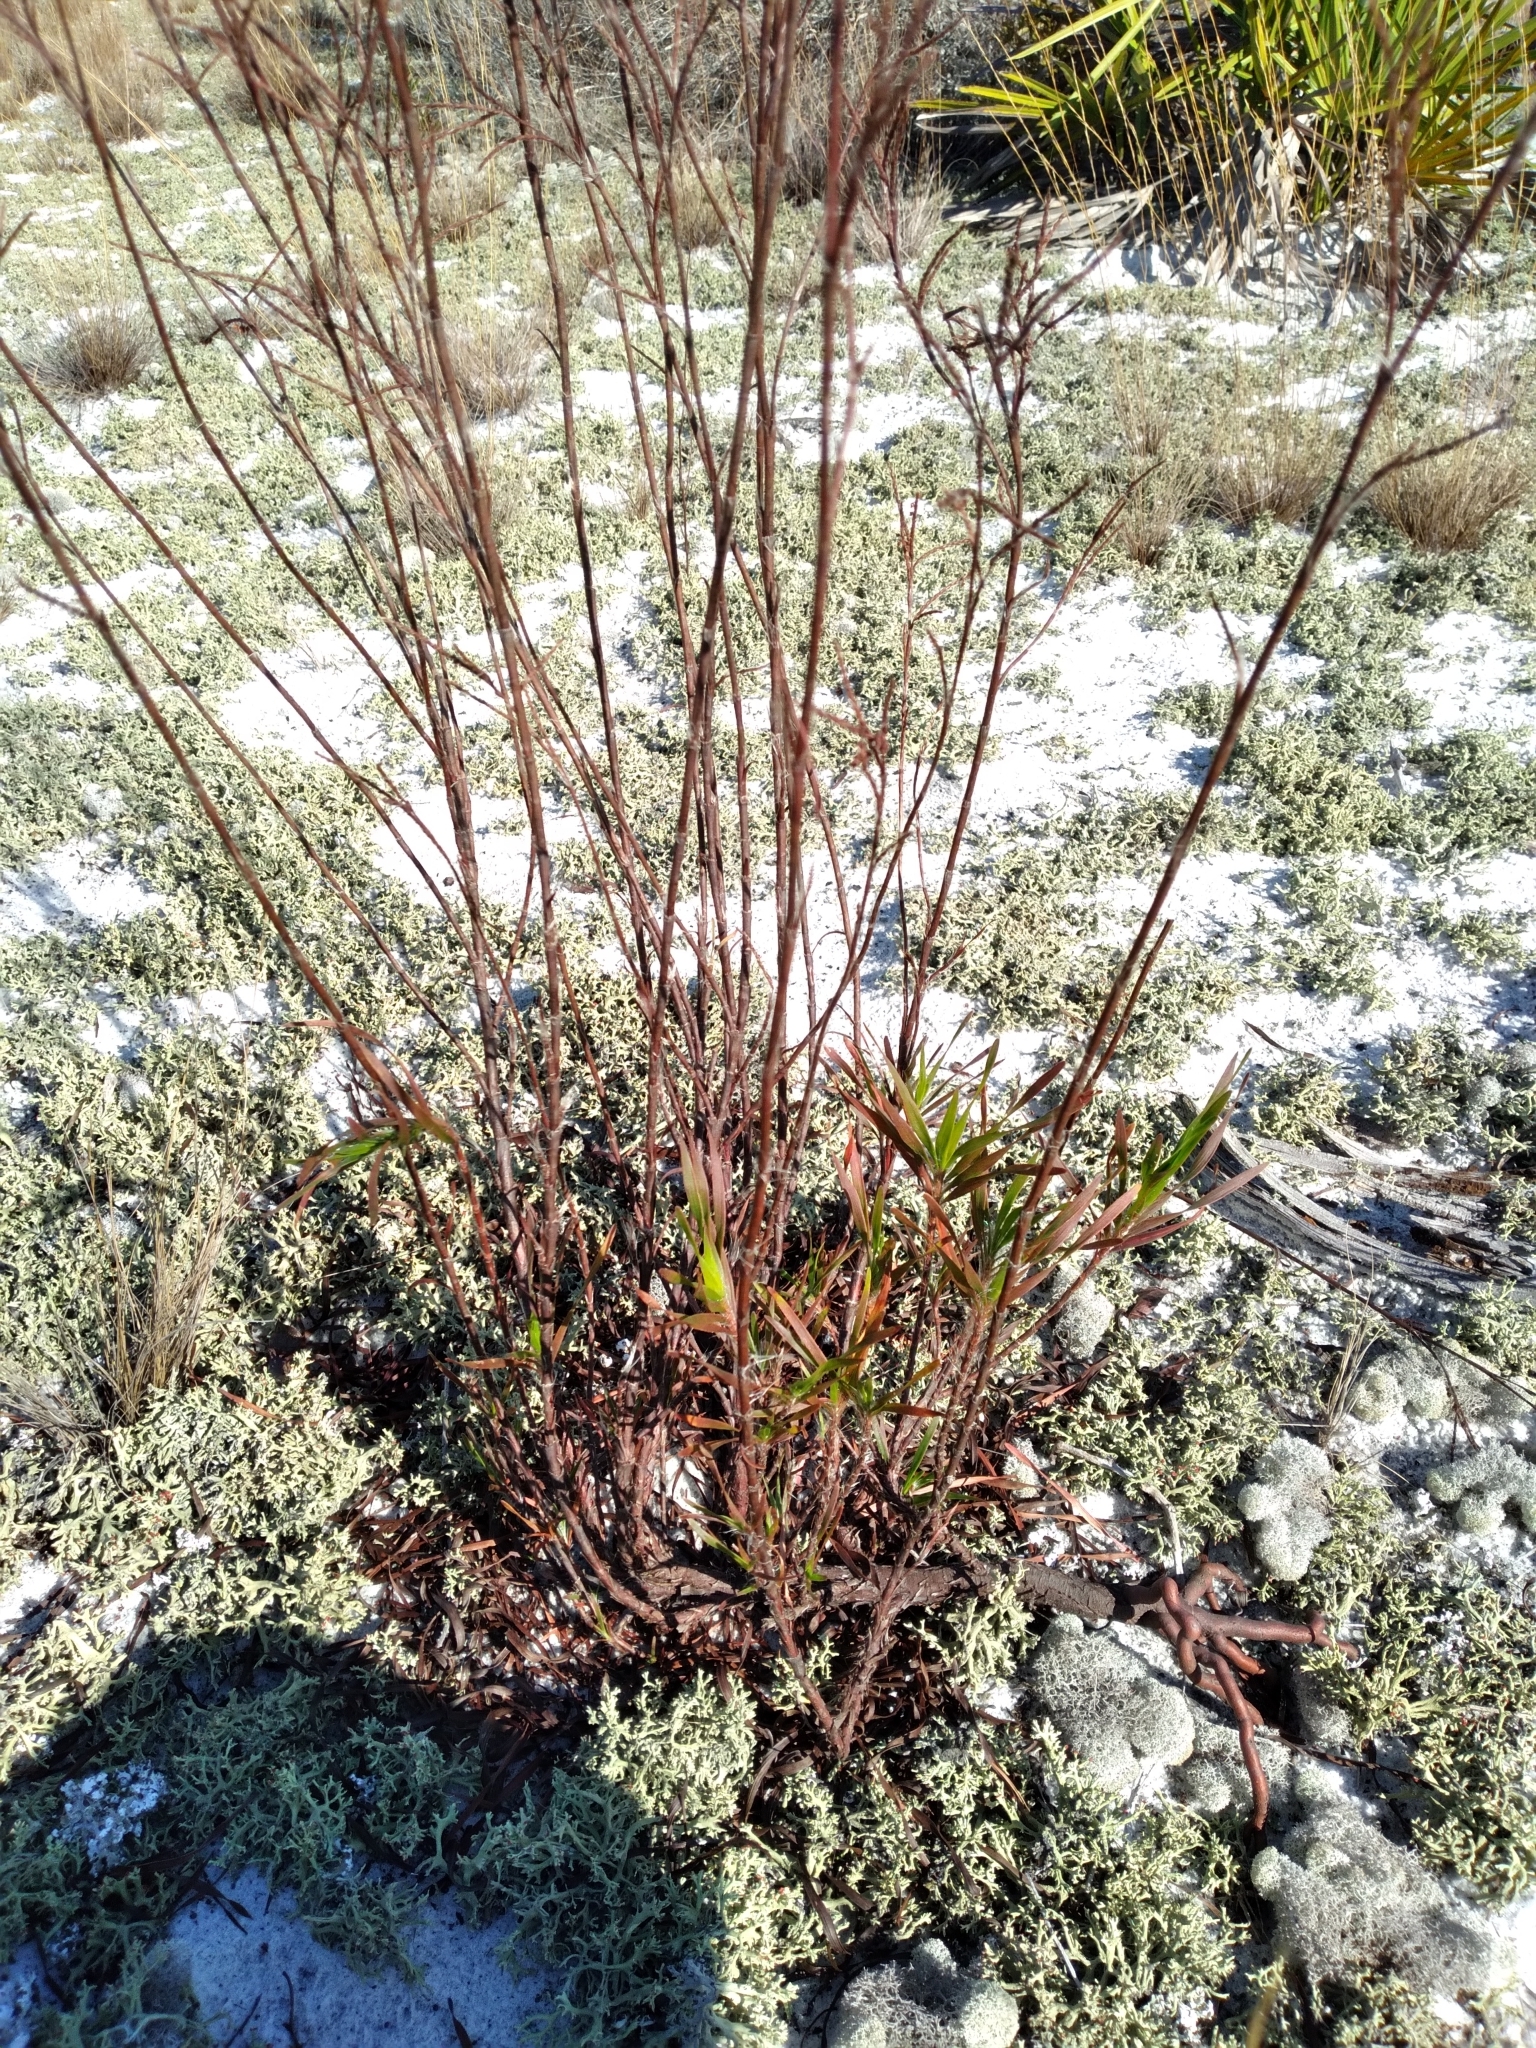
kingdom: Plantae
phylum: Tracheophyta
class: Magnoliopsida
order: Caryophyllales
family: Polygonaceae
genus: Polygonella
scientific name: Polygonella robusta
